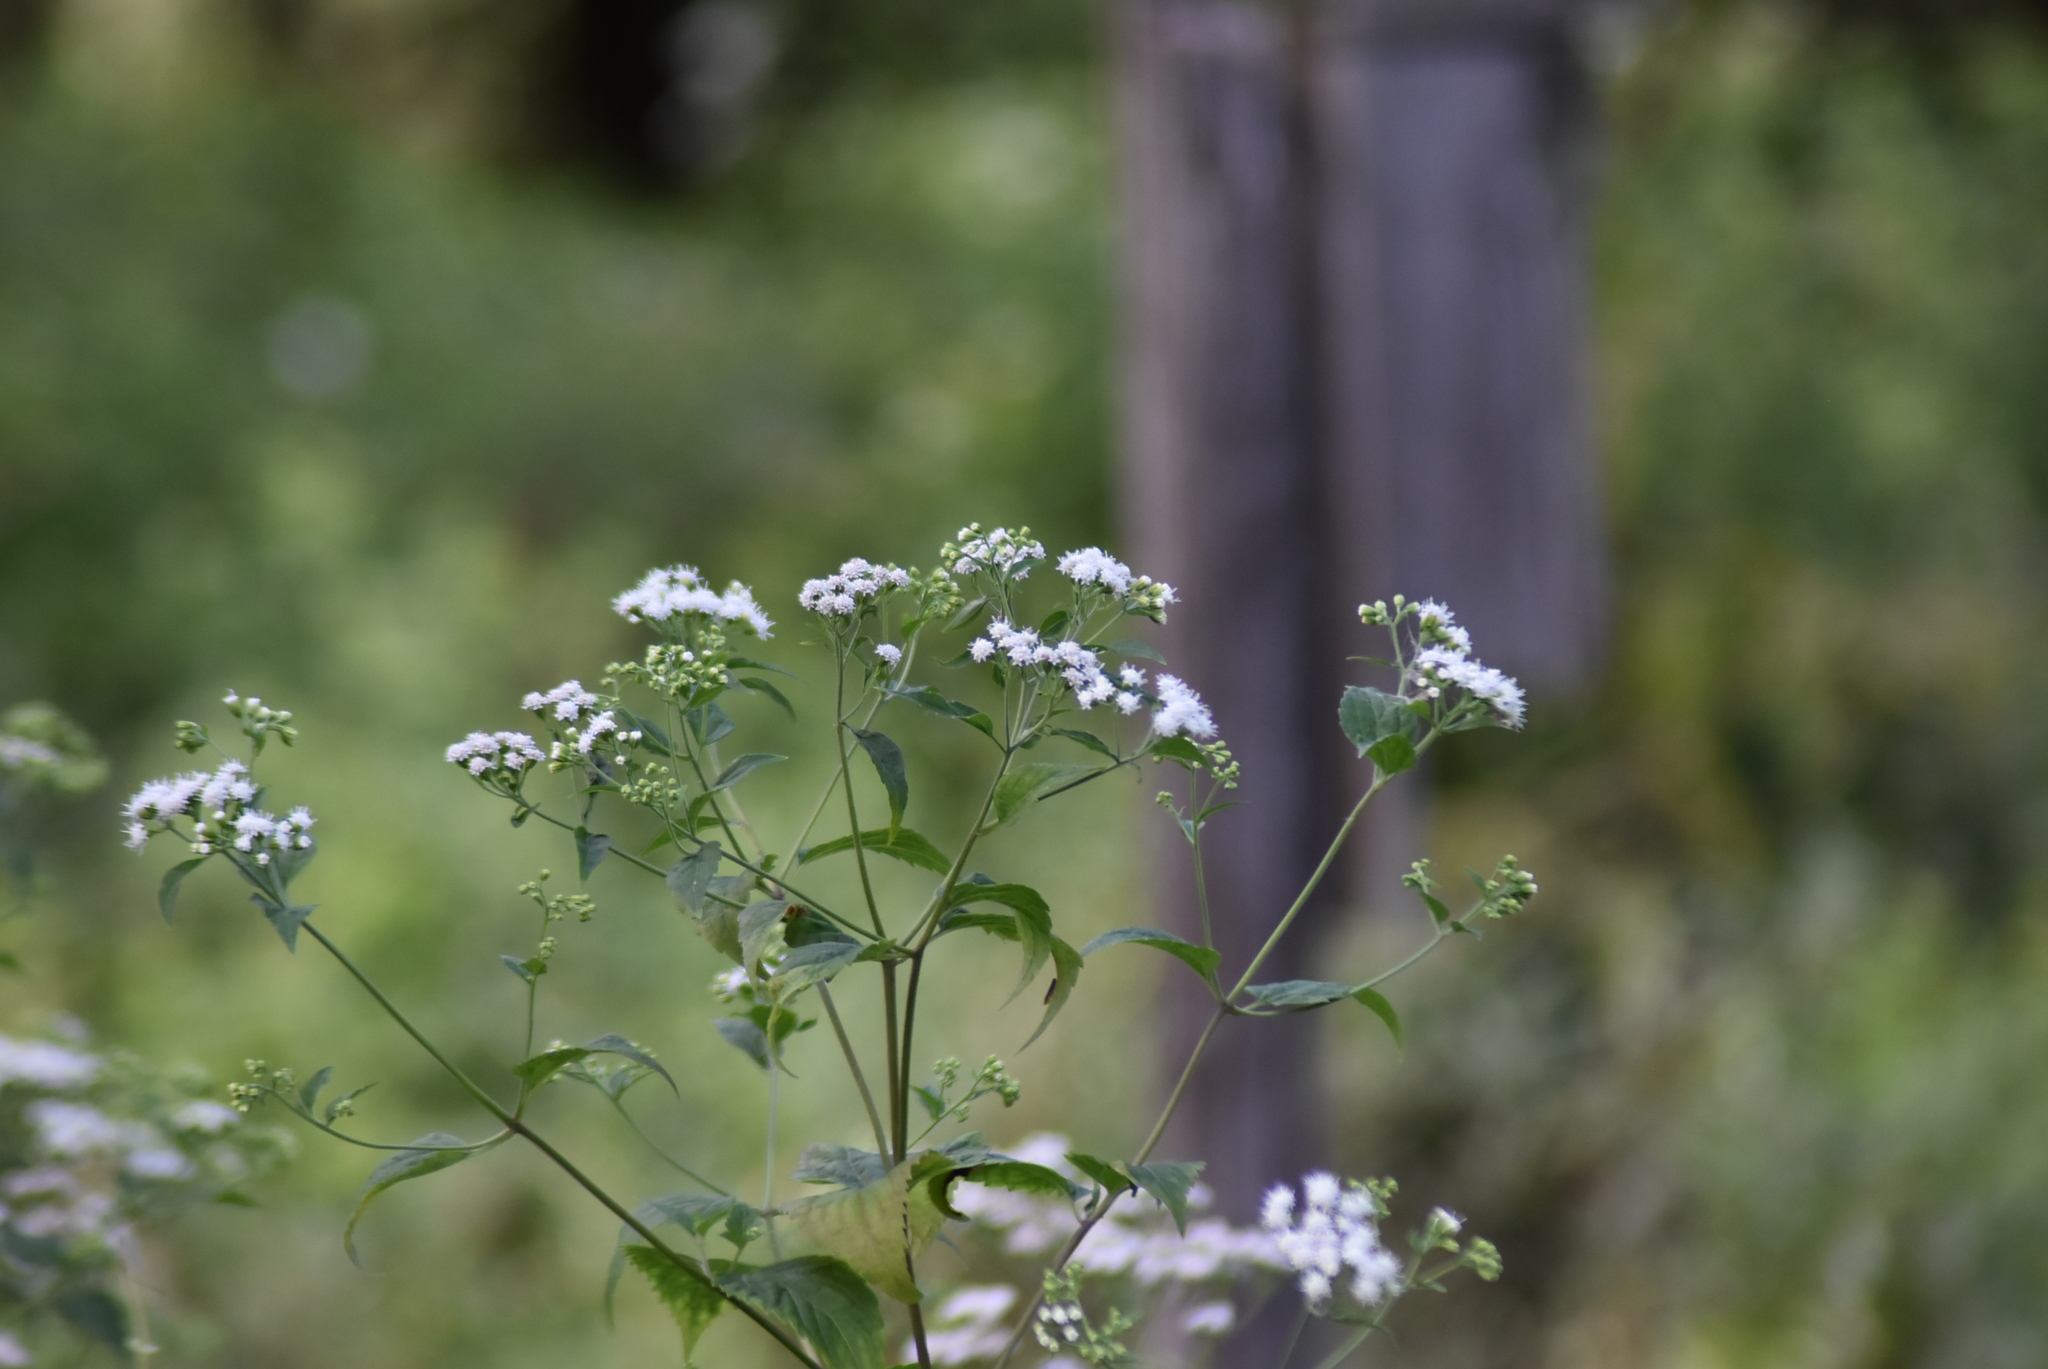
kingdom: Plantae
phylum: Tracheophyta
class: Magnoliopsida
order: Asterales
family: Asteraceae
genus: Ageratina
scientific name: Ageratina altissima
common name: White snakeroot
